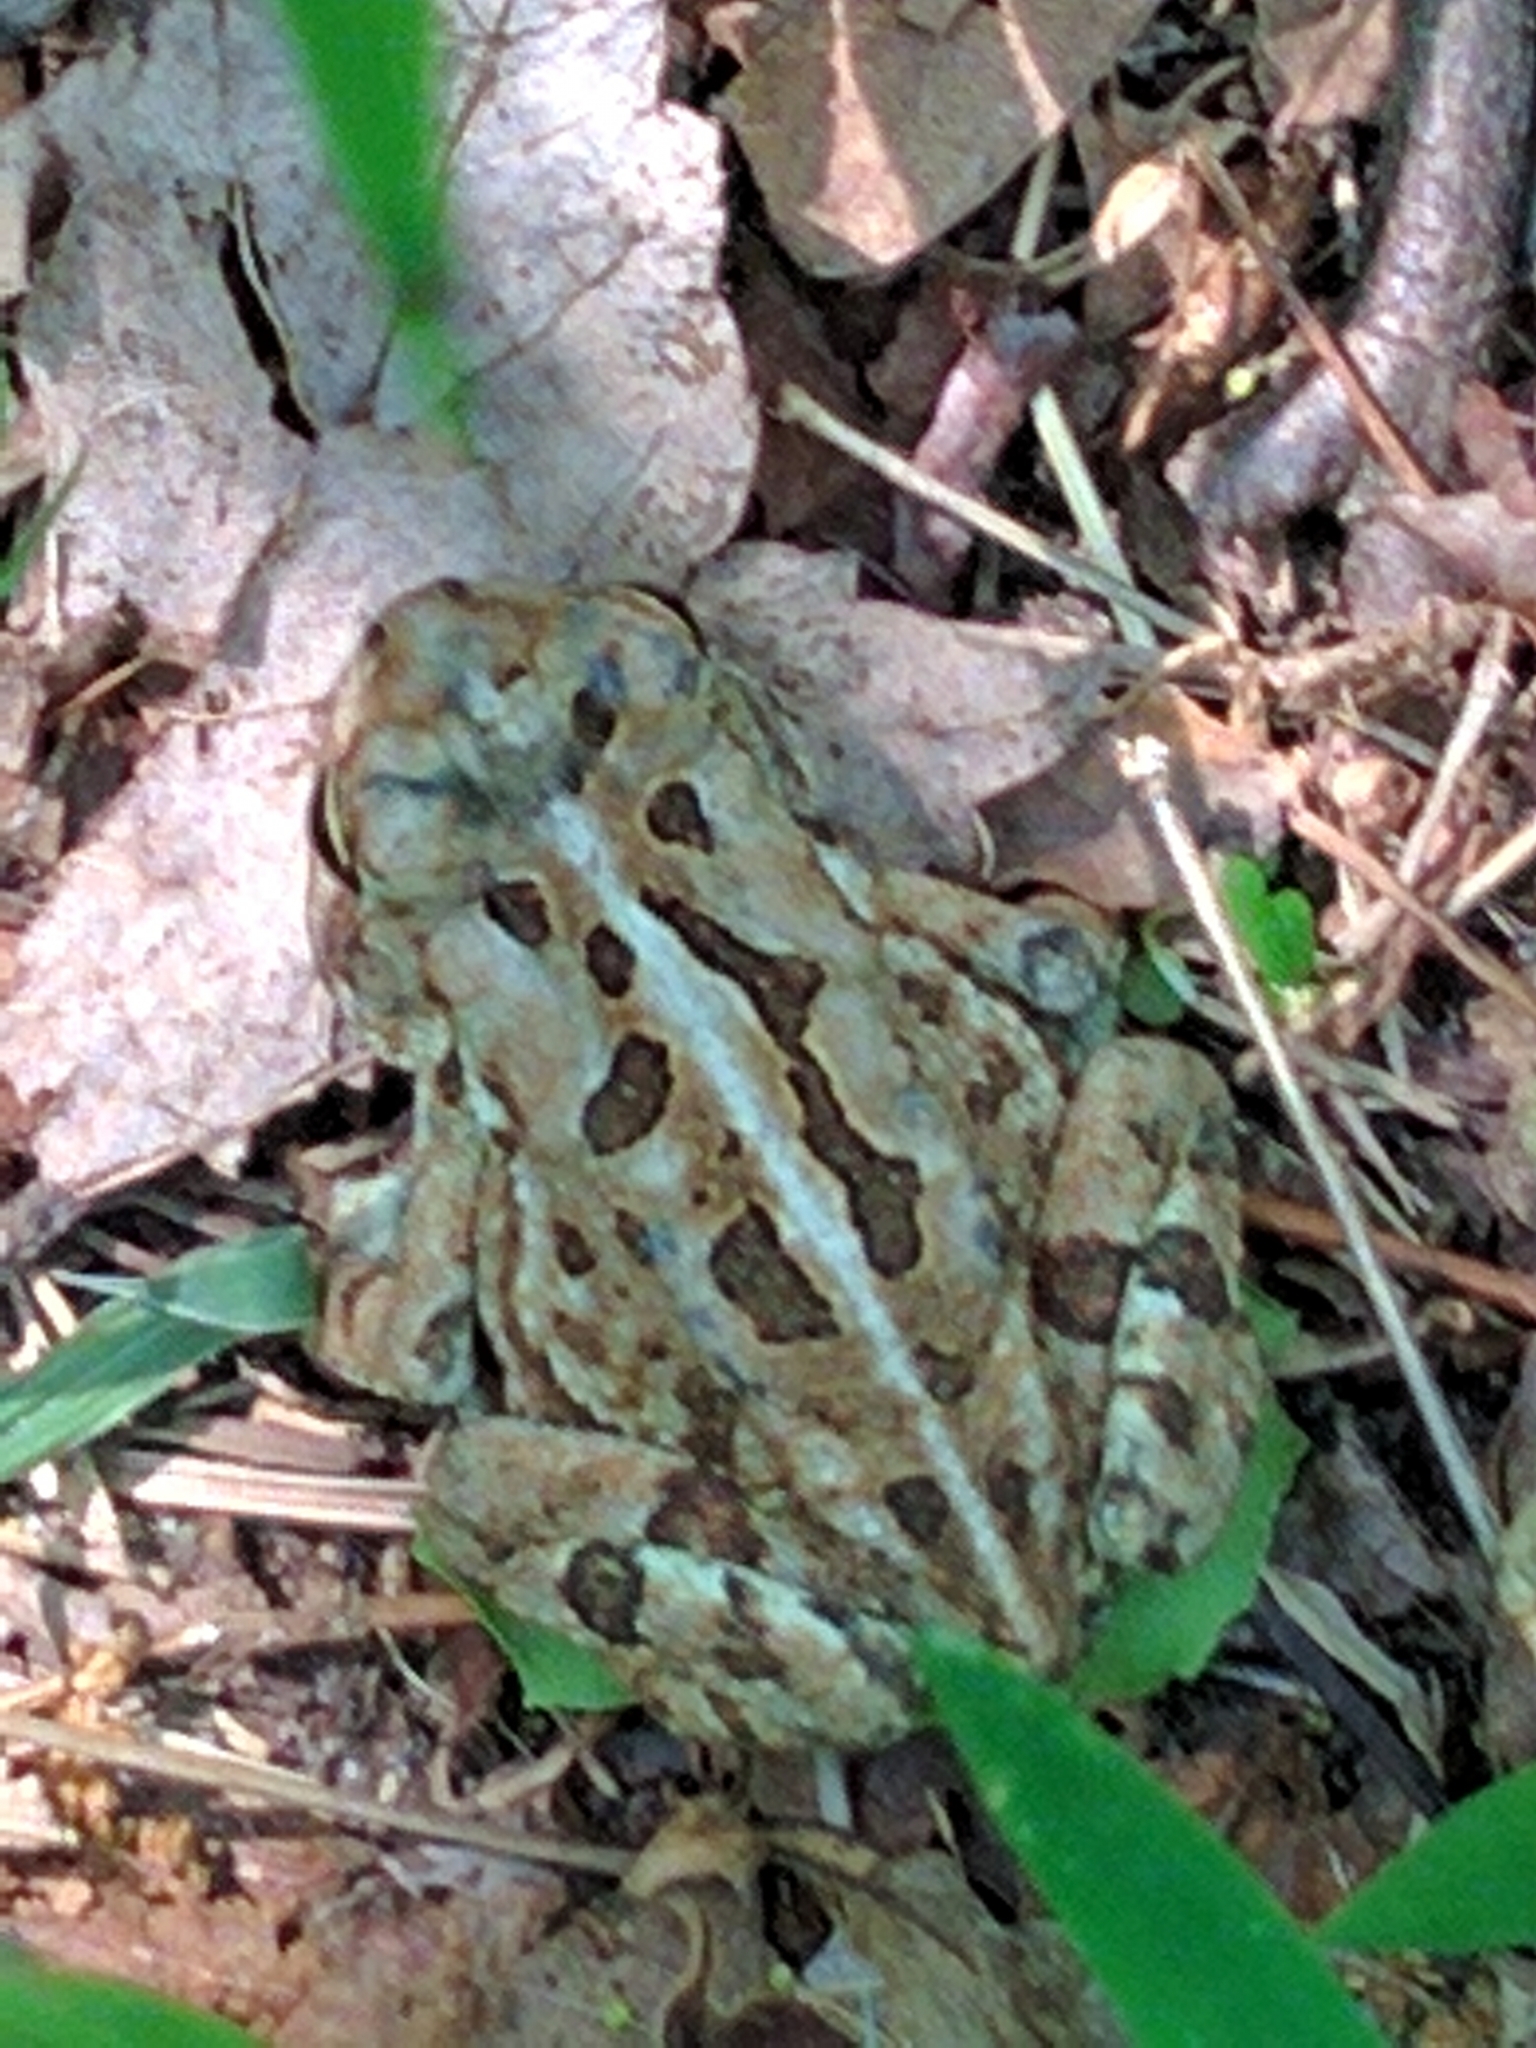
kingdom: Animalia
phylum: Chordata
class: Amphibia
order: Anura
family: Bufonidae
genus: Anaxyrus
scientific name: Anaxyrus fowleri
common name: Fowler's toad
